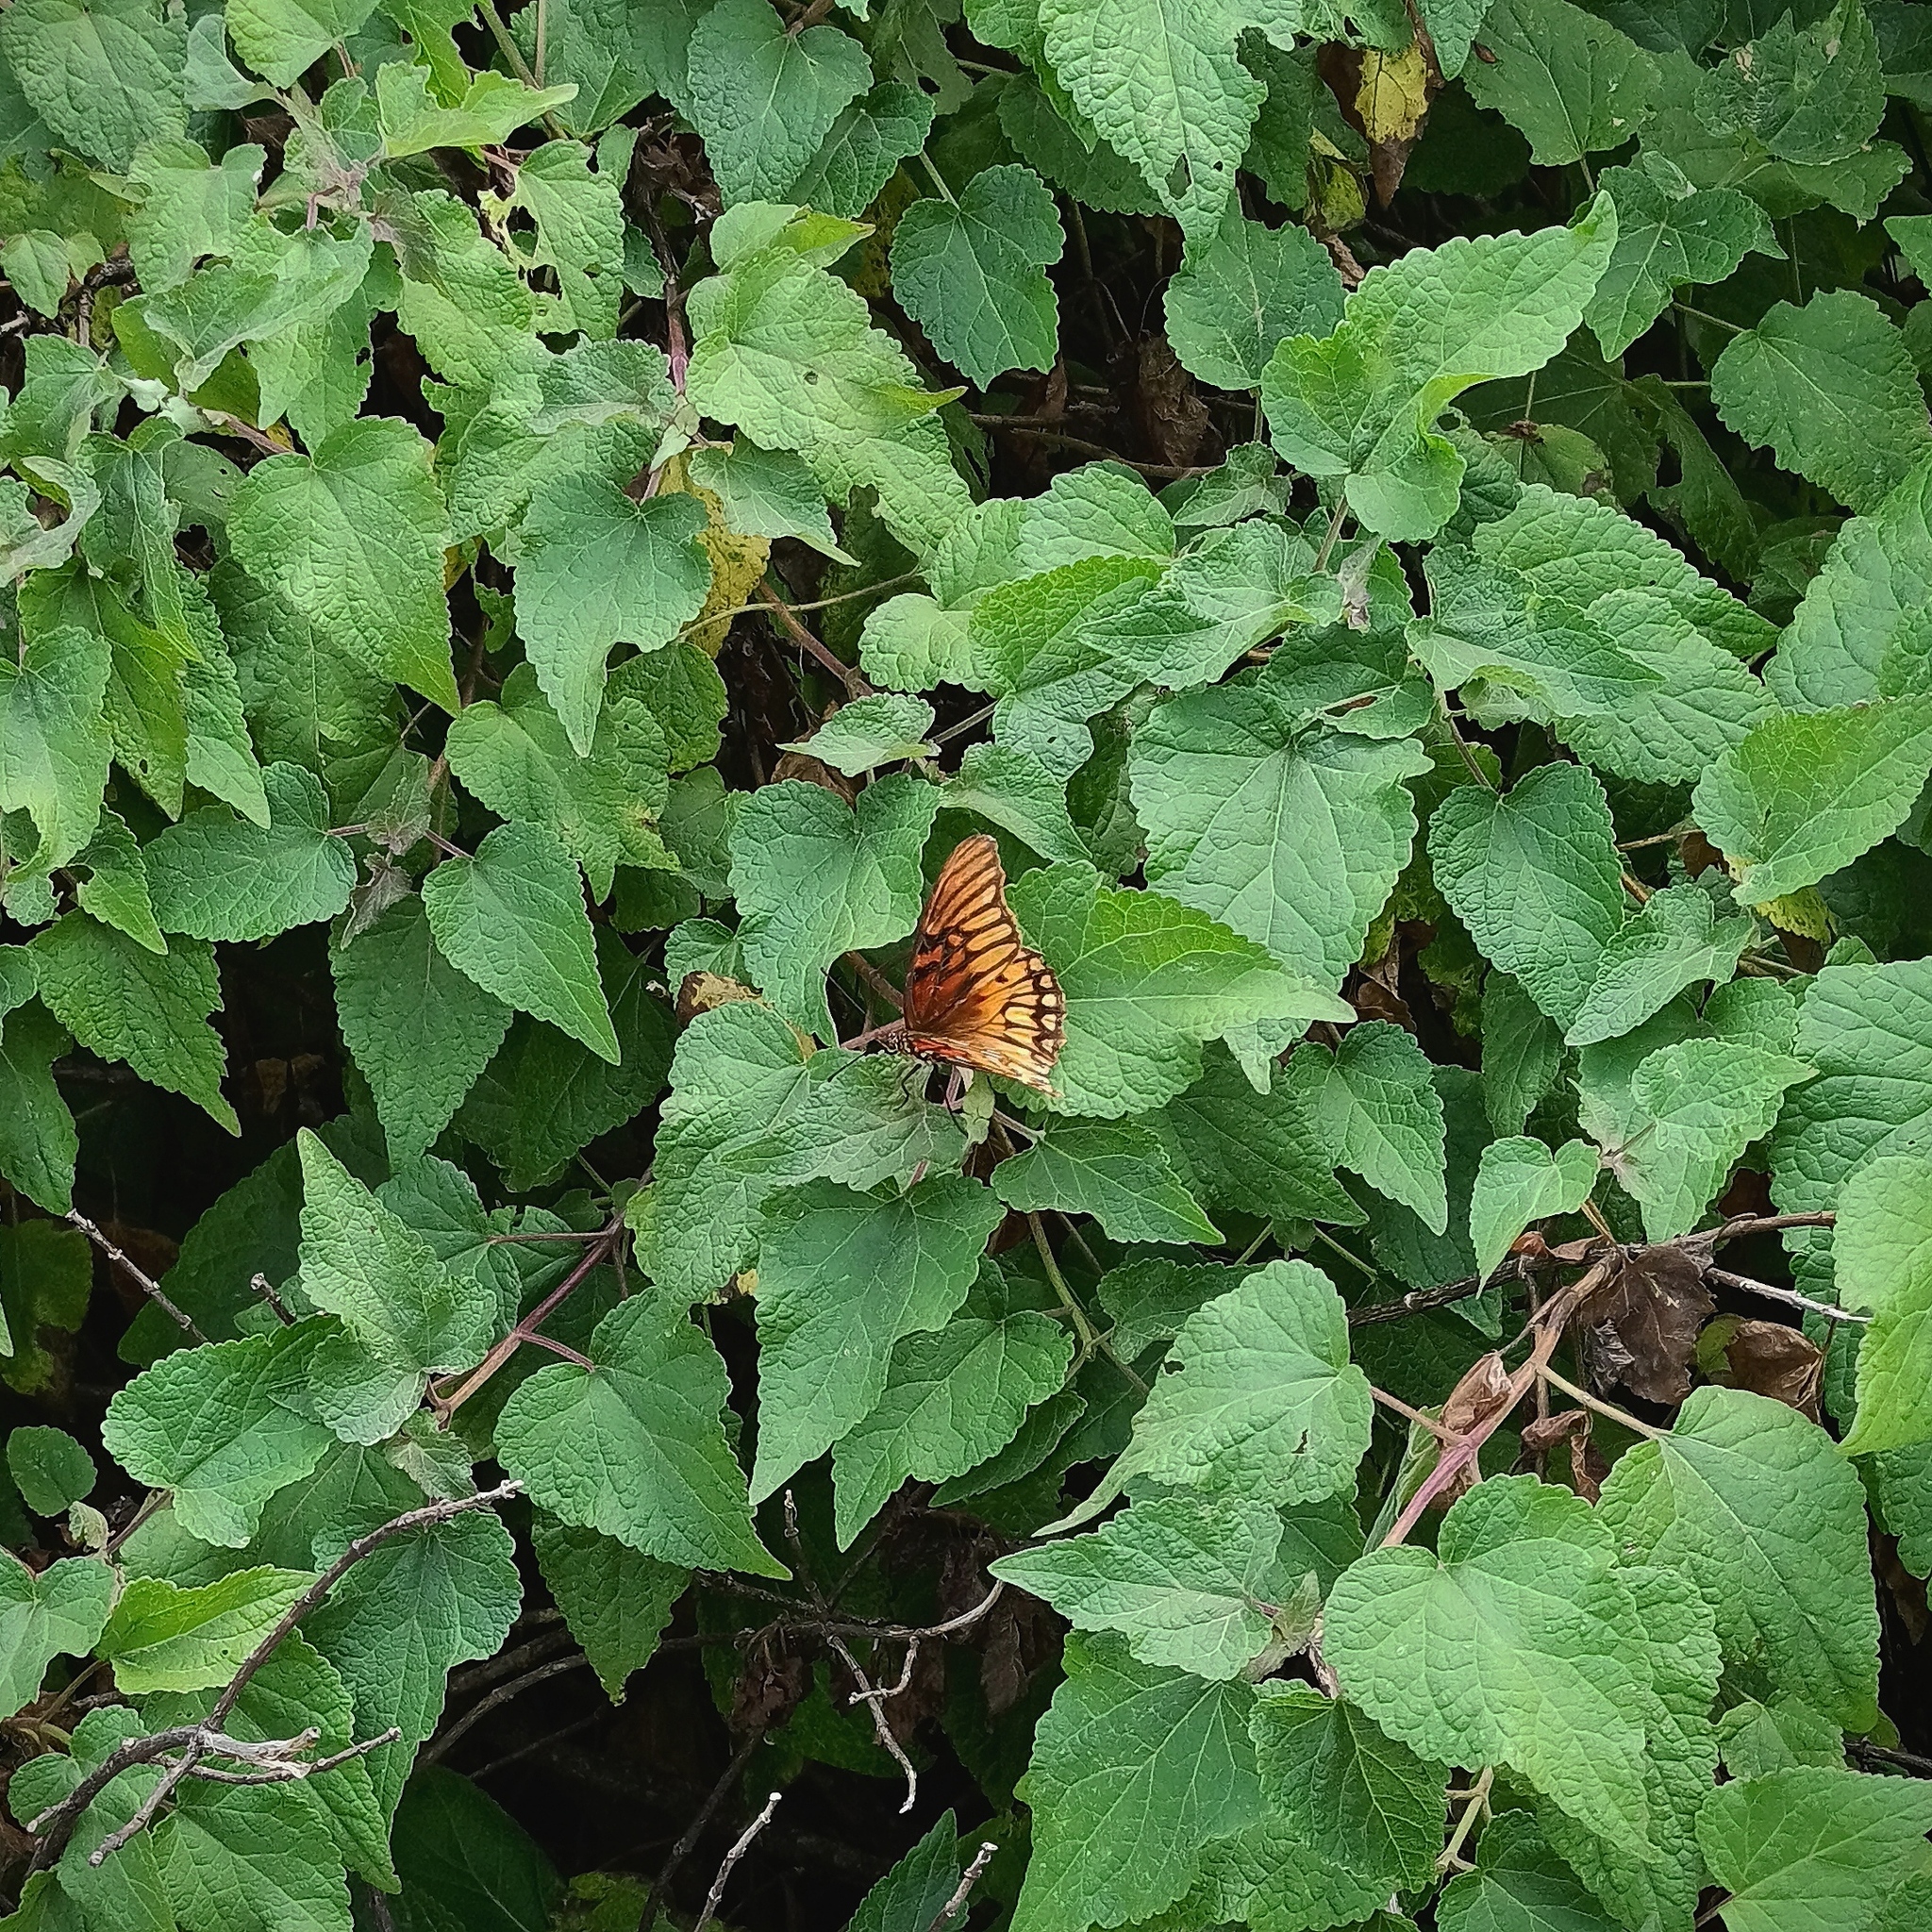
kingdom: Animalia
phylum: Arthropoda
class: Insecta
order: Lepidoptera
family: Nymphalidae
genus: Dione
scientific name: Dione moneta
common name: Mexican silverspot
